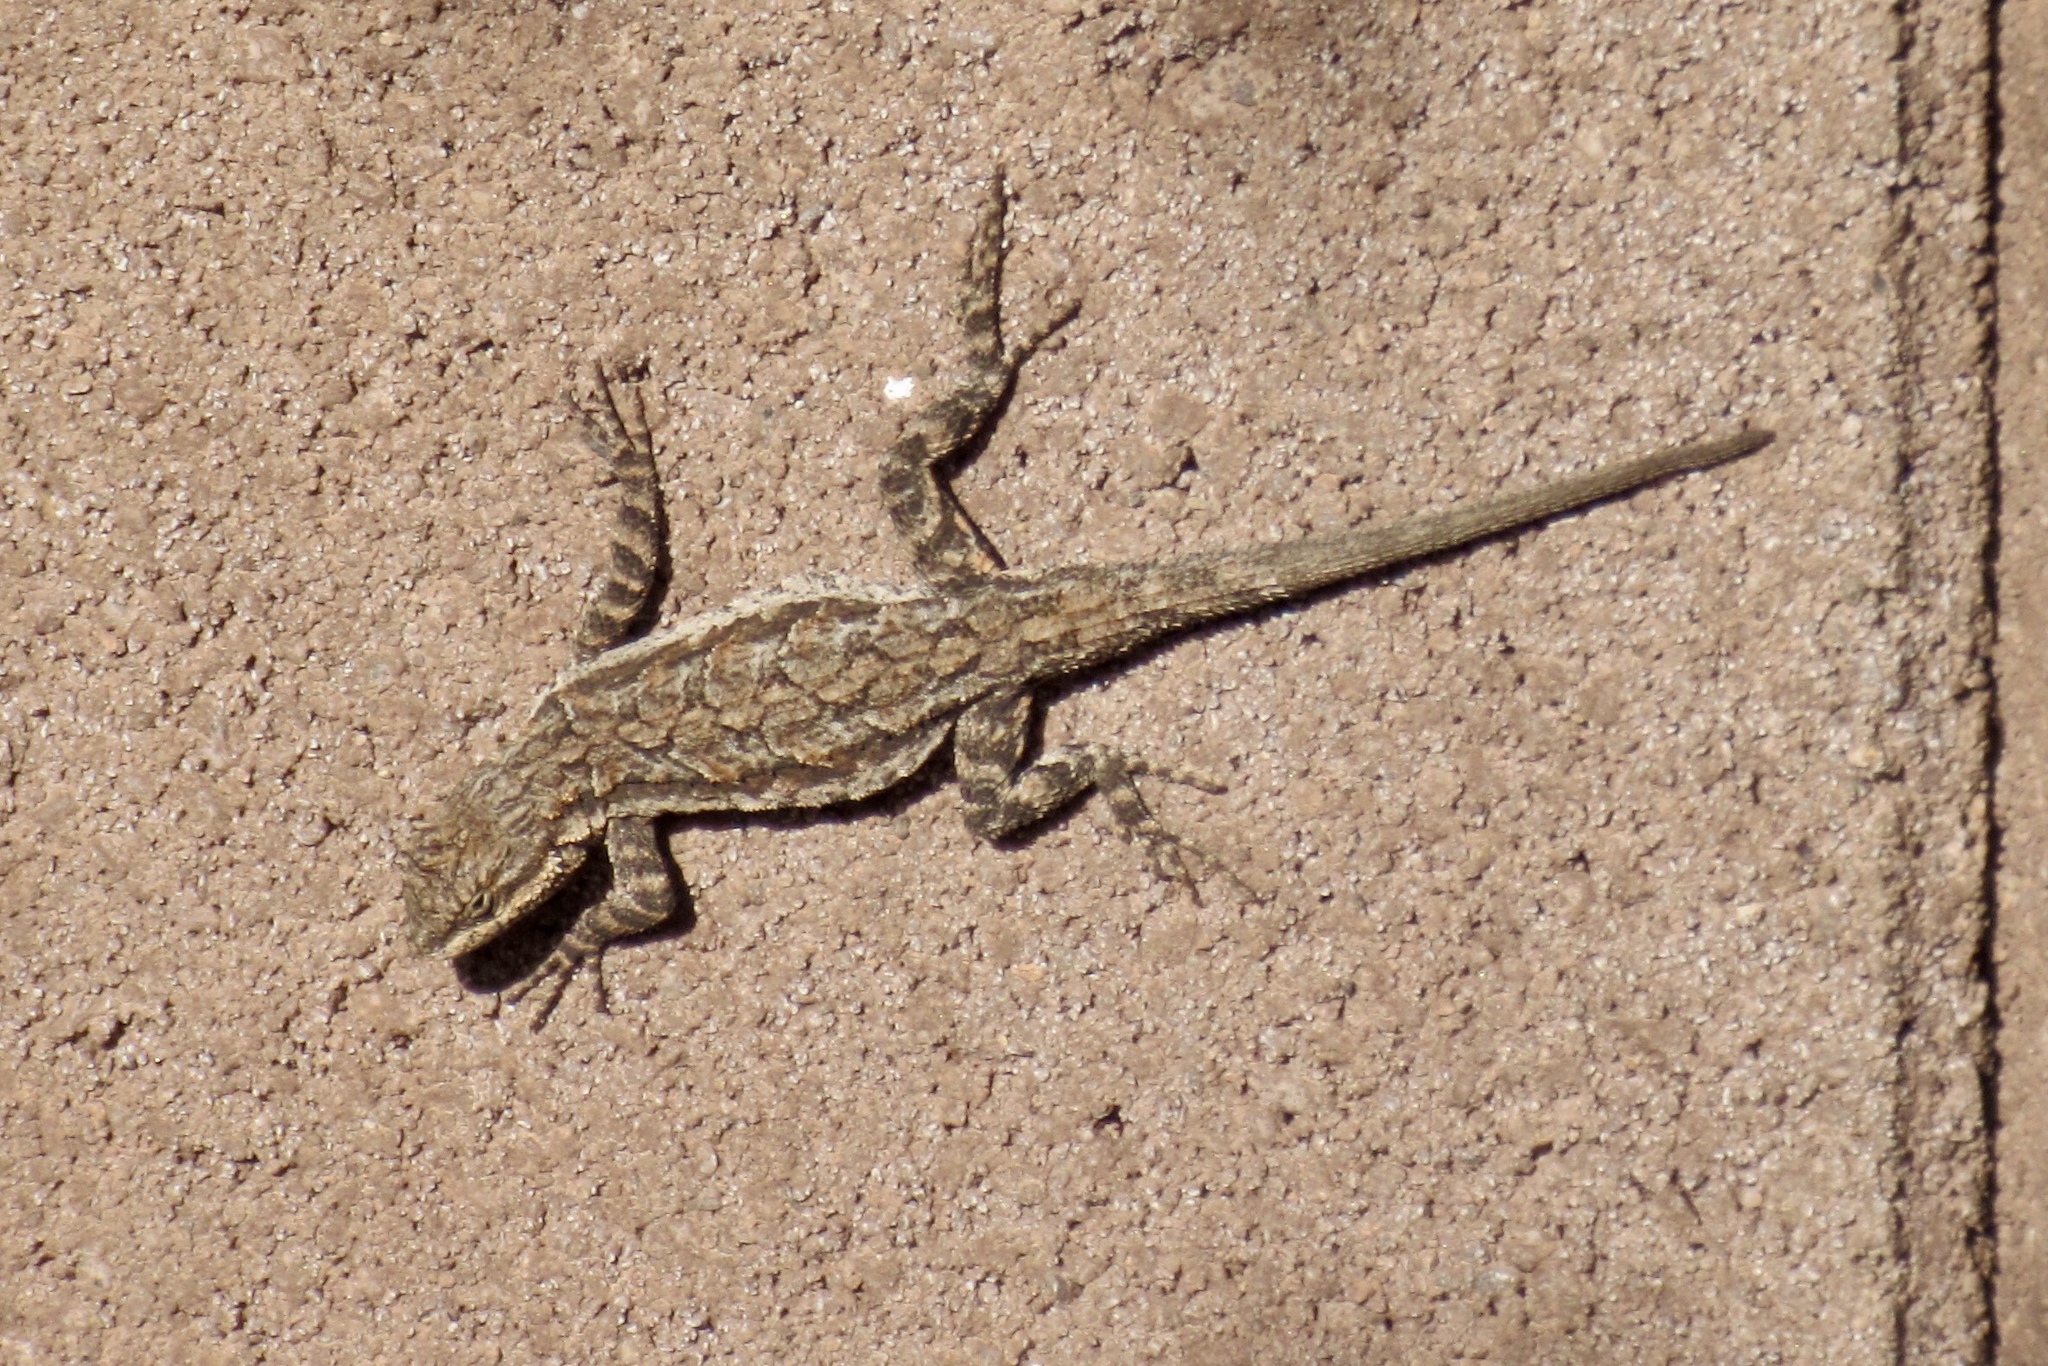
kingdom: Animalia
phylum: Chordata
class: Squamata
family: Phrynosomatidae
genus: Urosaurus
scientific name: Urosaurus ornatus
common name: Ornate tree lizard
